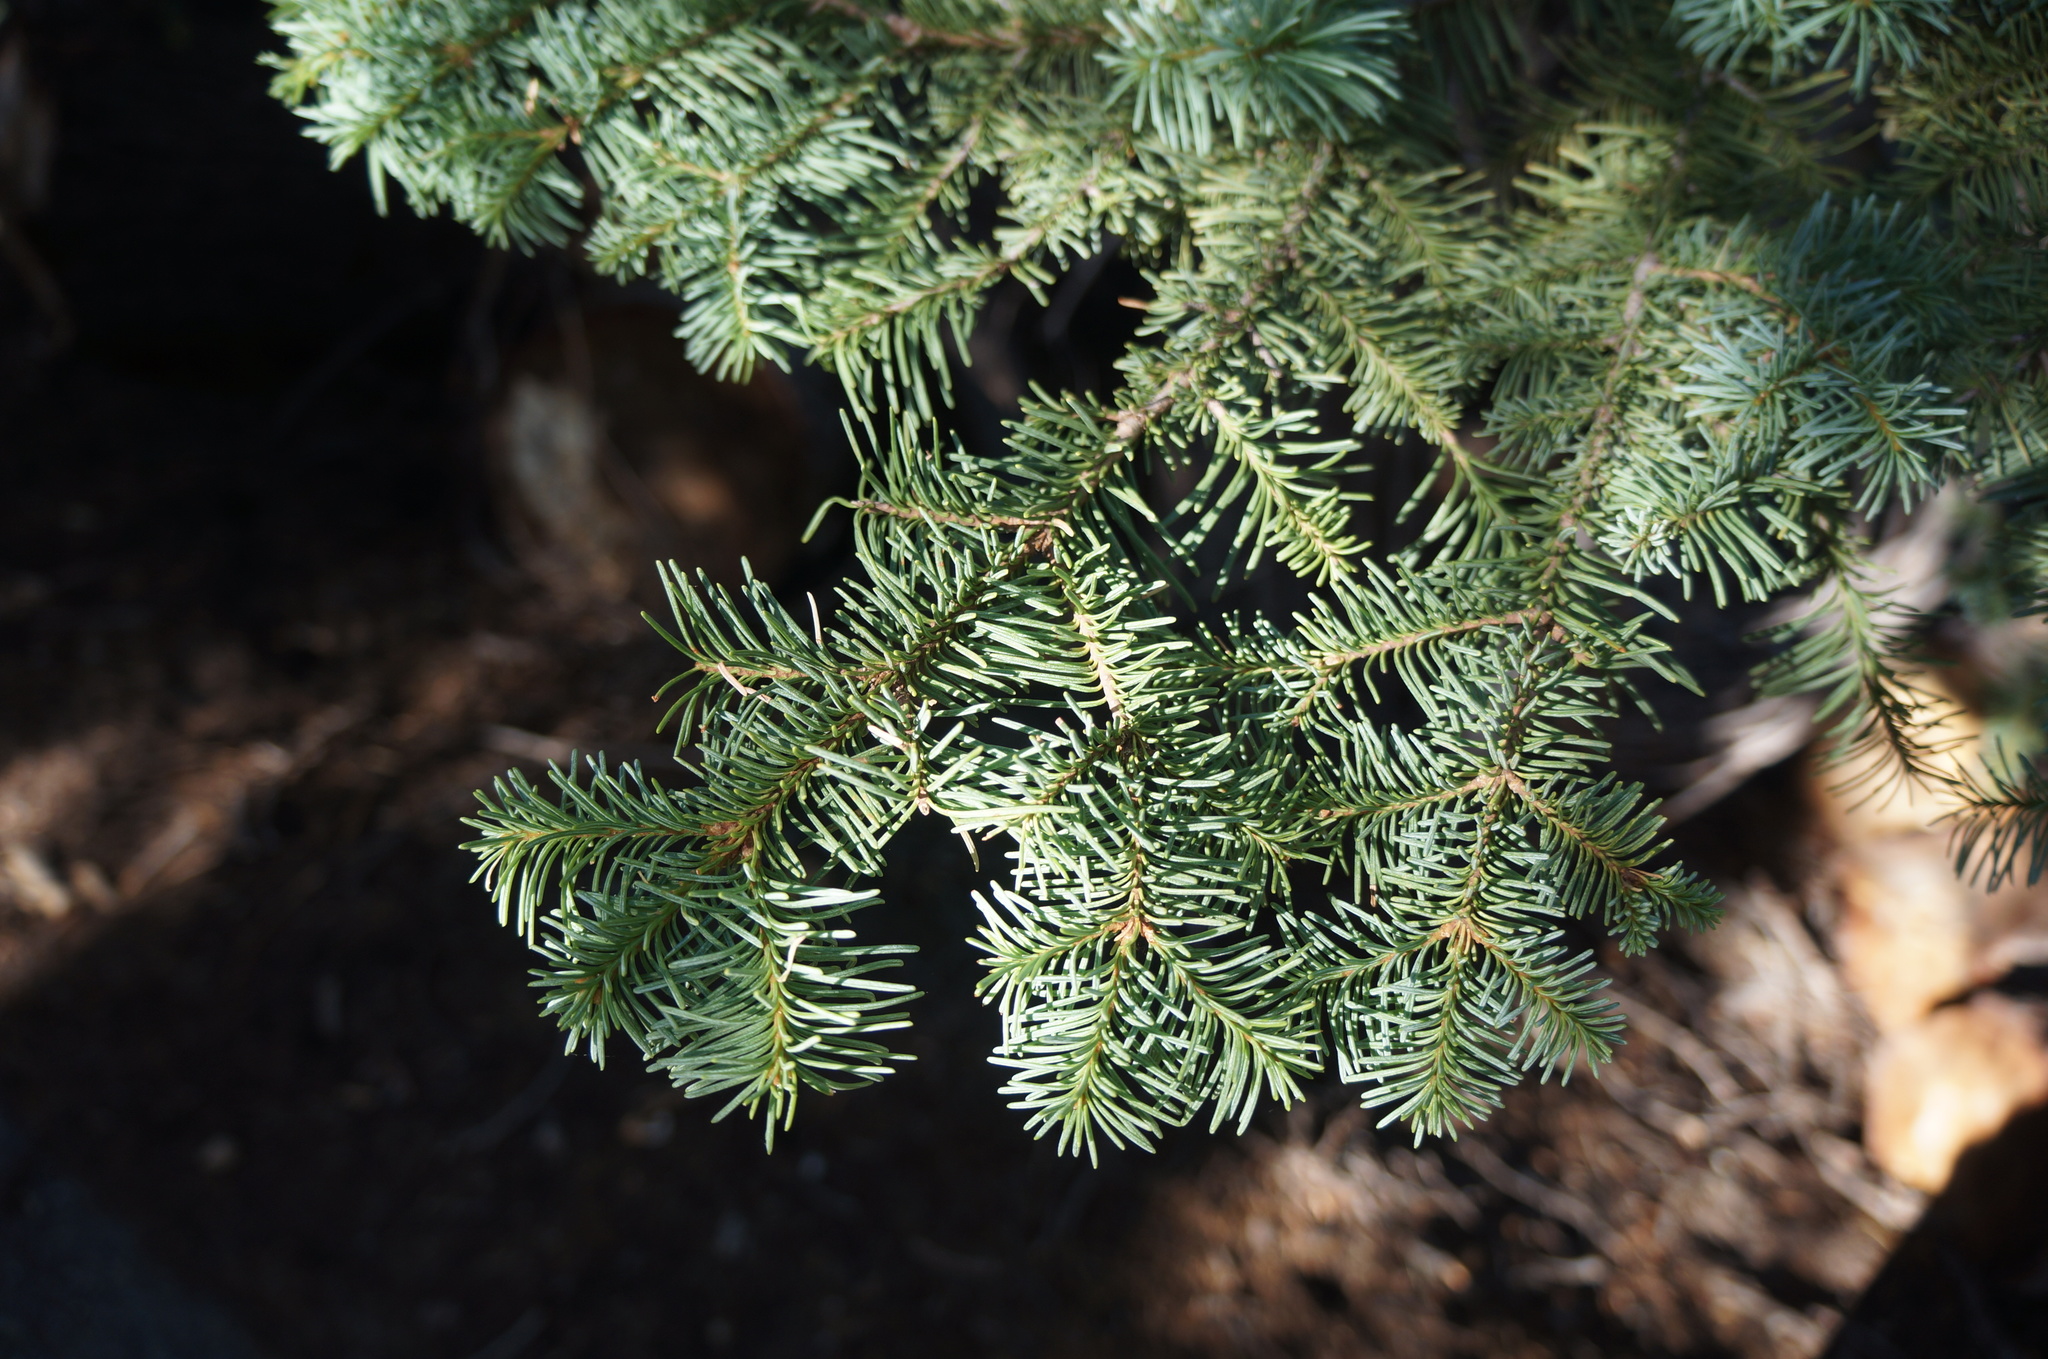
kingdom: Plantae
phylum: Tracheophyta
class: Pinopsida
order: Pinales
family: Pinaceae
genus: Abies
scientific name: Abies magnifica bis
